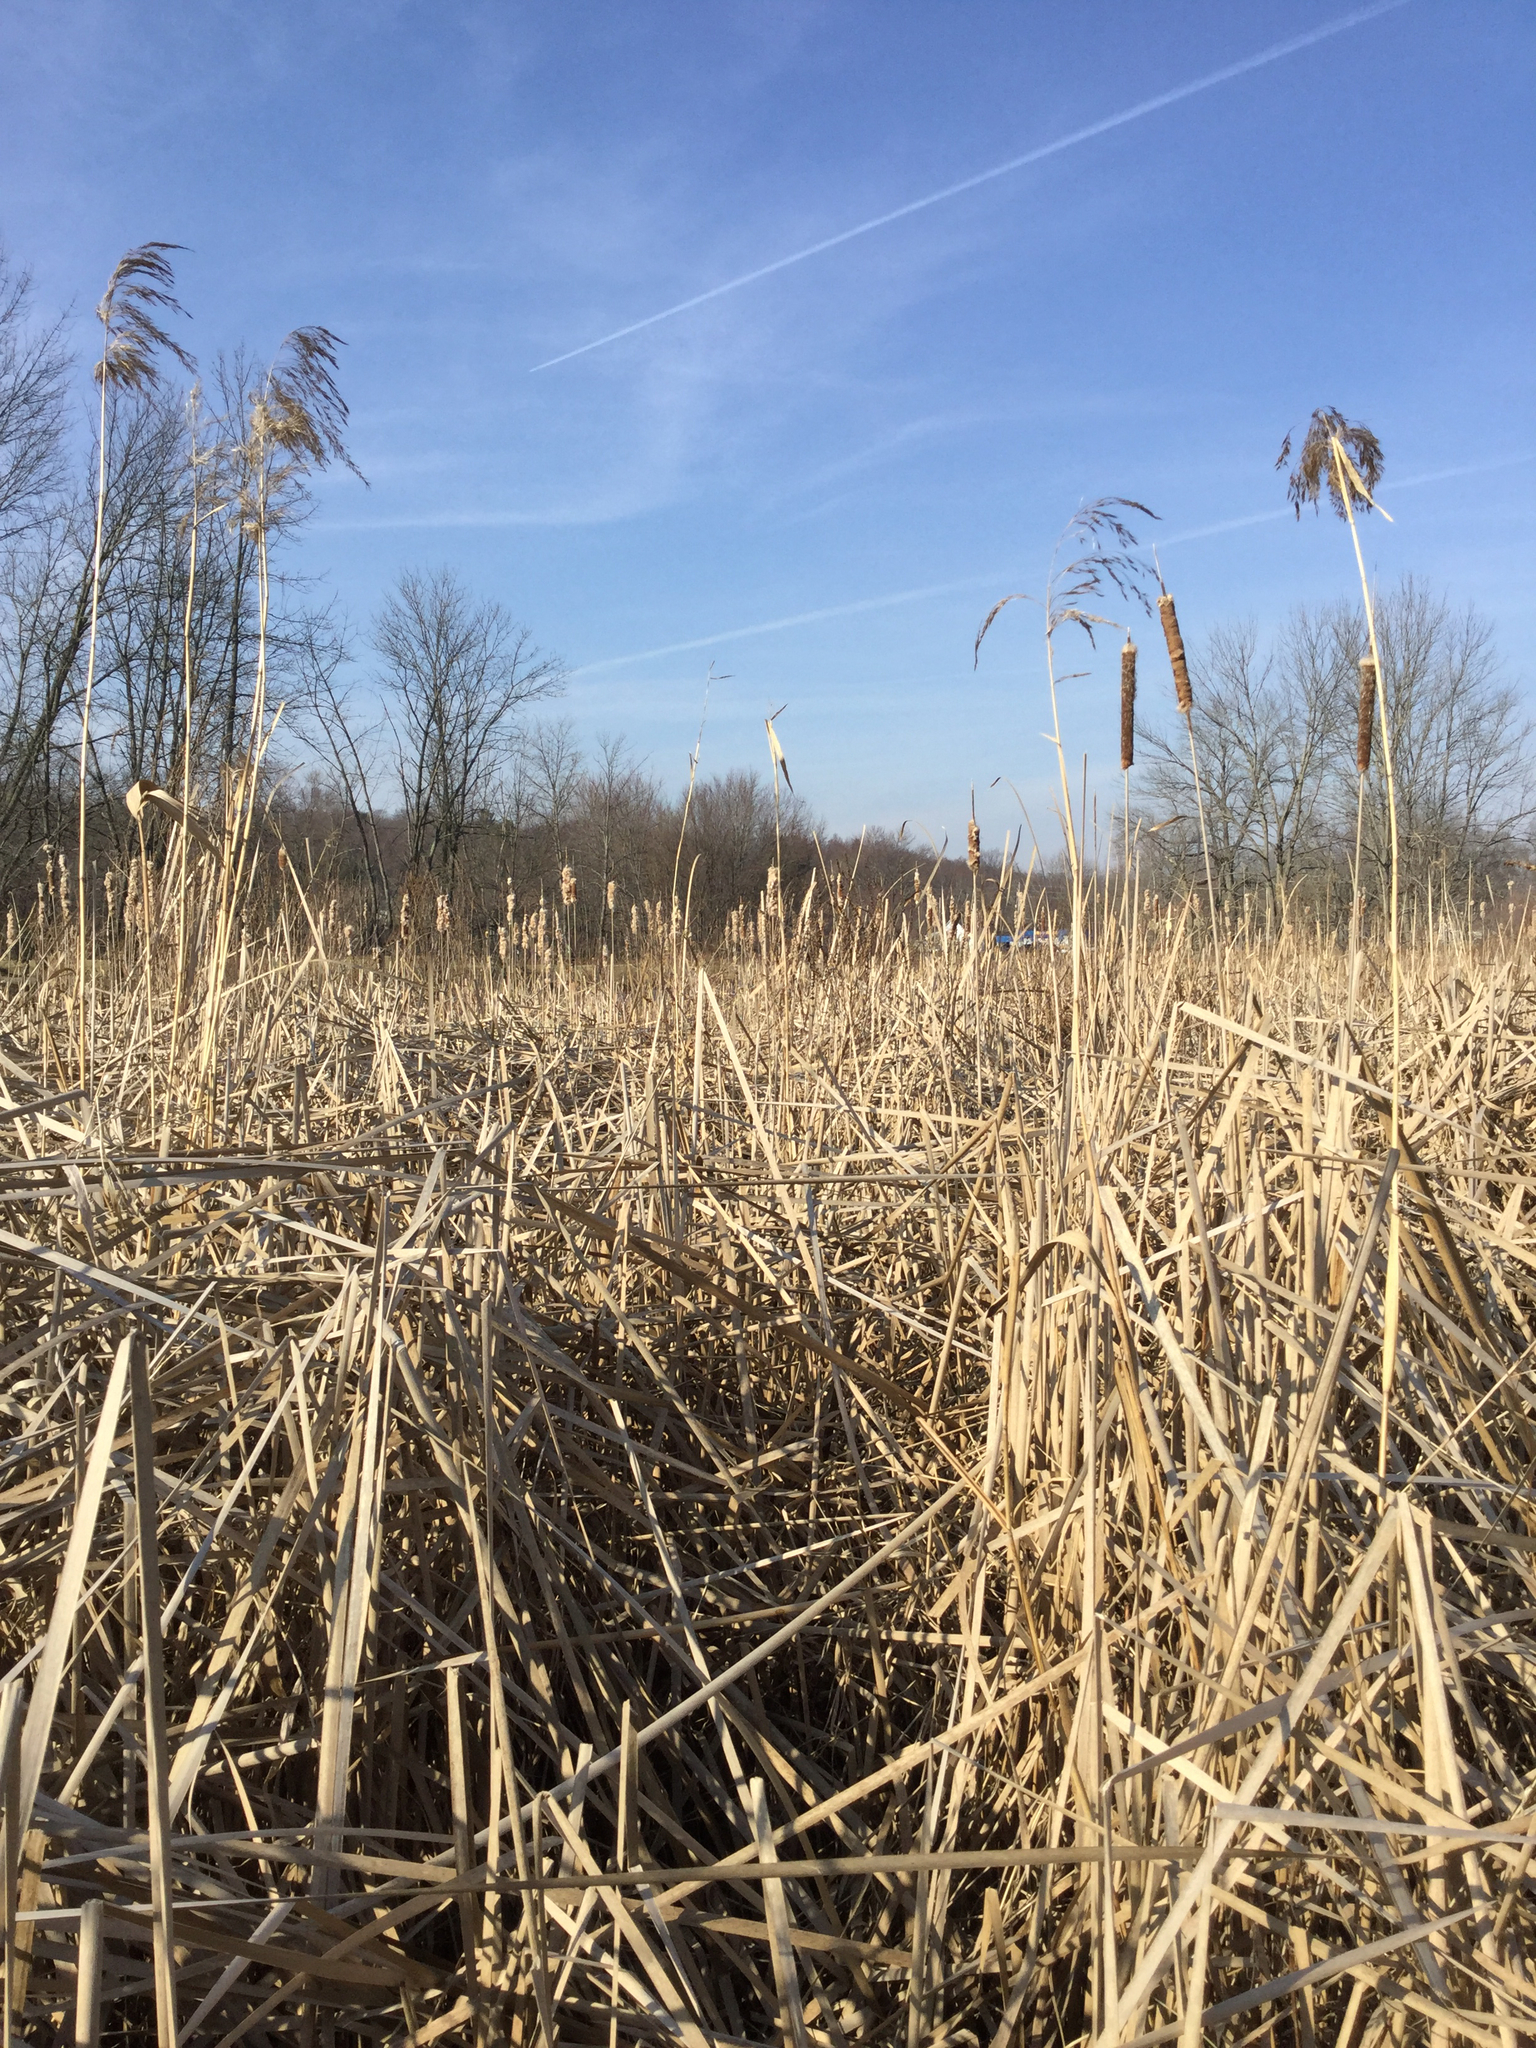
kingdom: Plantae
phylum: Tracheophyta
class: Liliopsida
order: Poales
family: Poaceae
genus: Phragmites
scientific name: Phragmites australis
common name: Common reed
